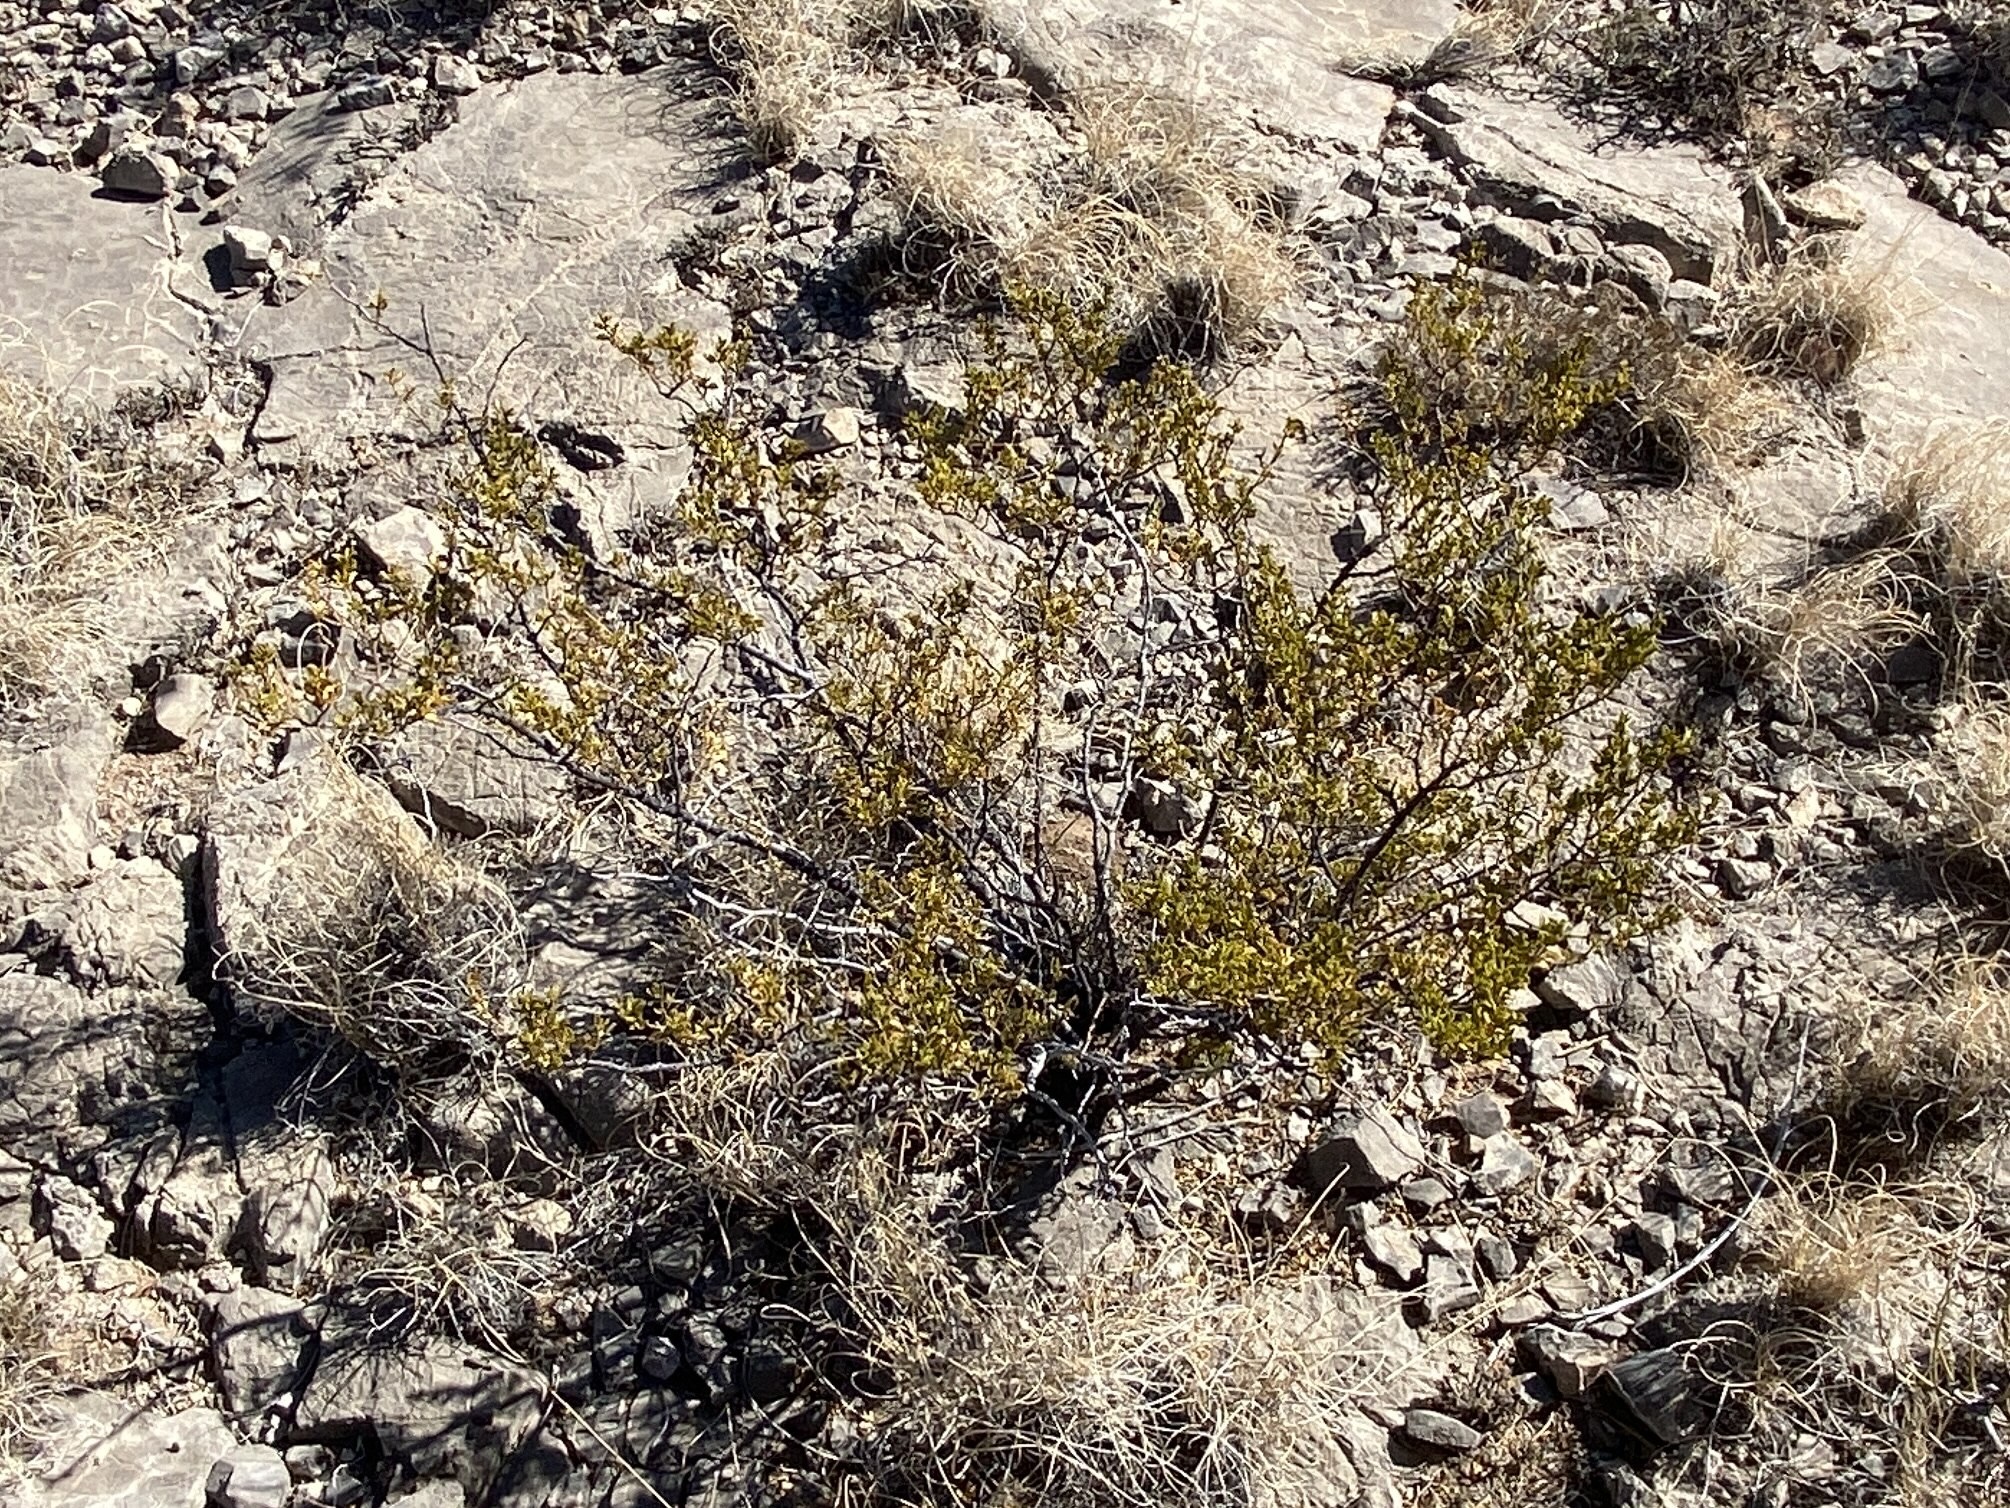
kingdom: Plantae
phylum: Tracheophyta
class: Magnoliopsida
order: Zygophyllales
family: Zygophyllaceae
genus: Larrea
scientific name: Larrea tridentata
